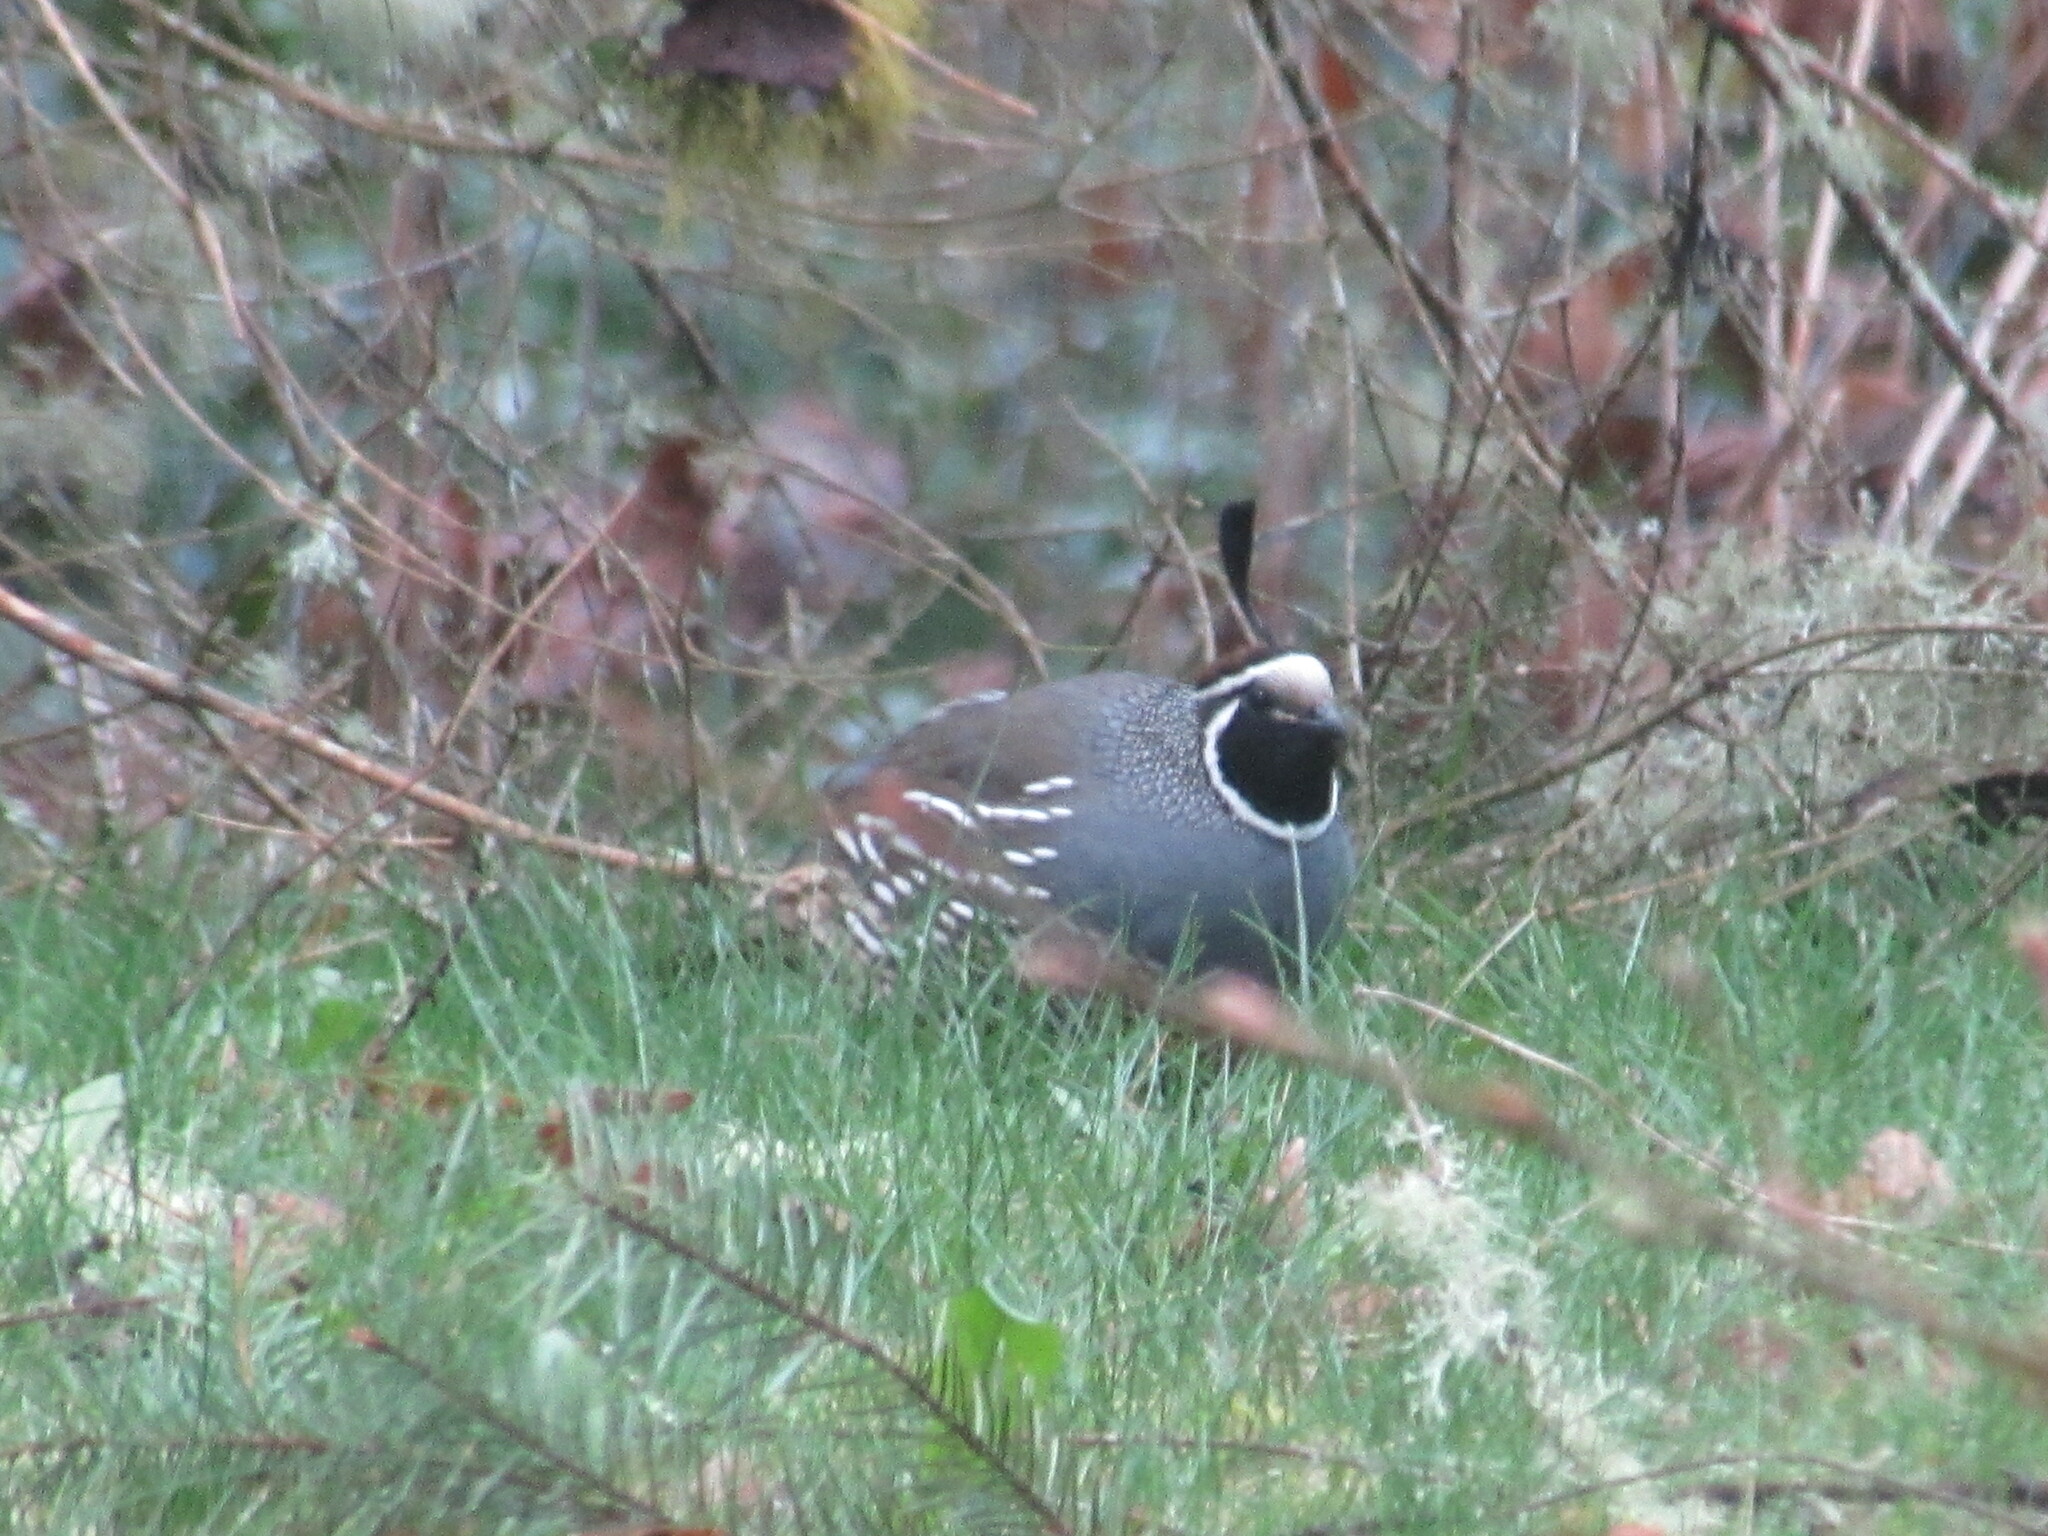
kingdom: Animalia
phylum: Chordata
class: Aves
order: Galliformes
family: Odontophoridae
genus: Callipepla
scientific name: Callipepla californica
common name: California quail
